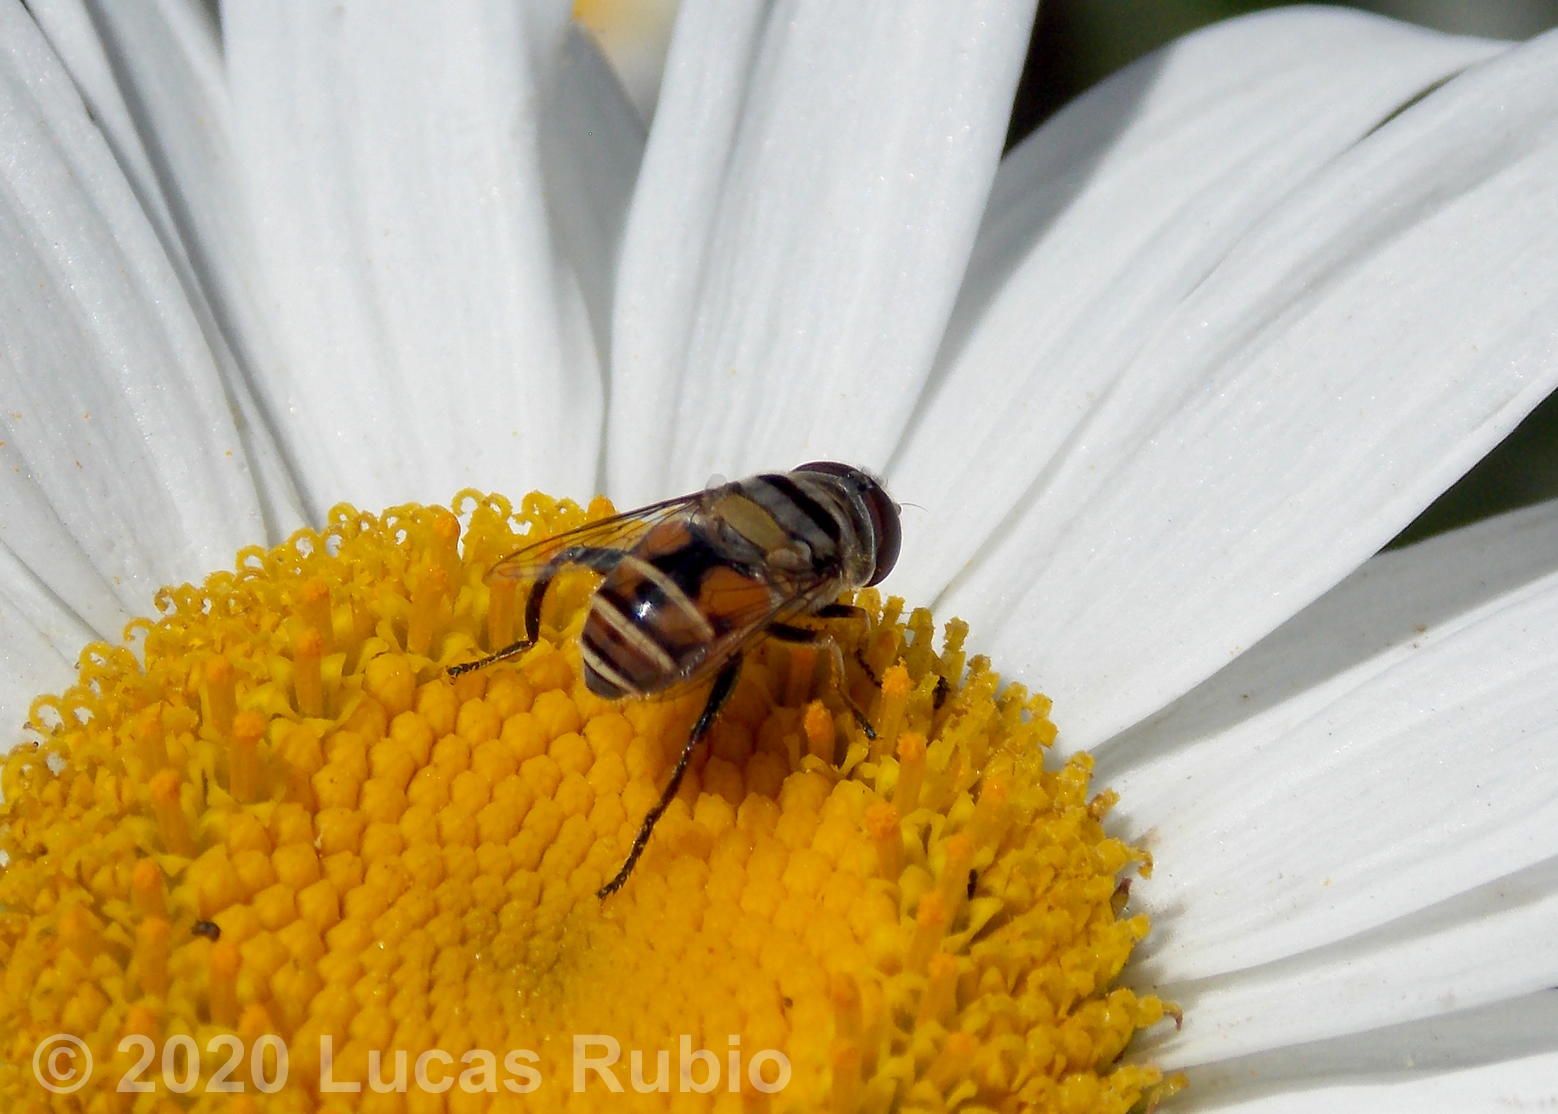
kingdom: Animalia
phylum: Arthropoda
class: Insecta
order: Diptera
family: Syrphidae
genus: Palpada
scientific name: Palpada rufiventris
